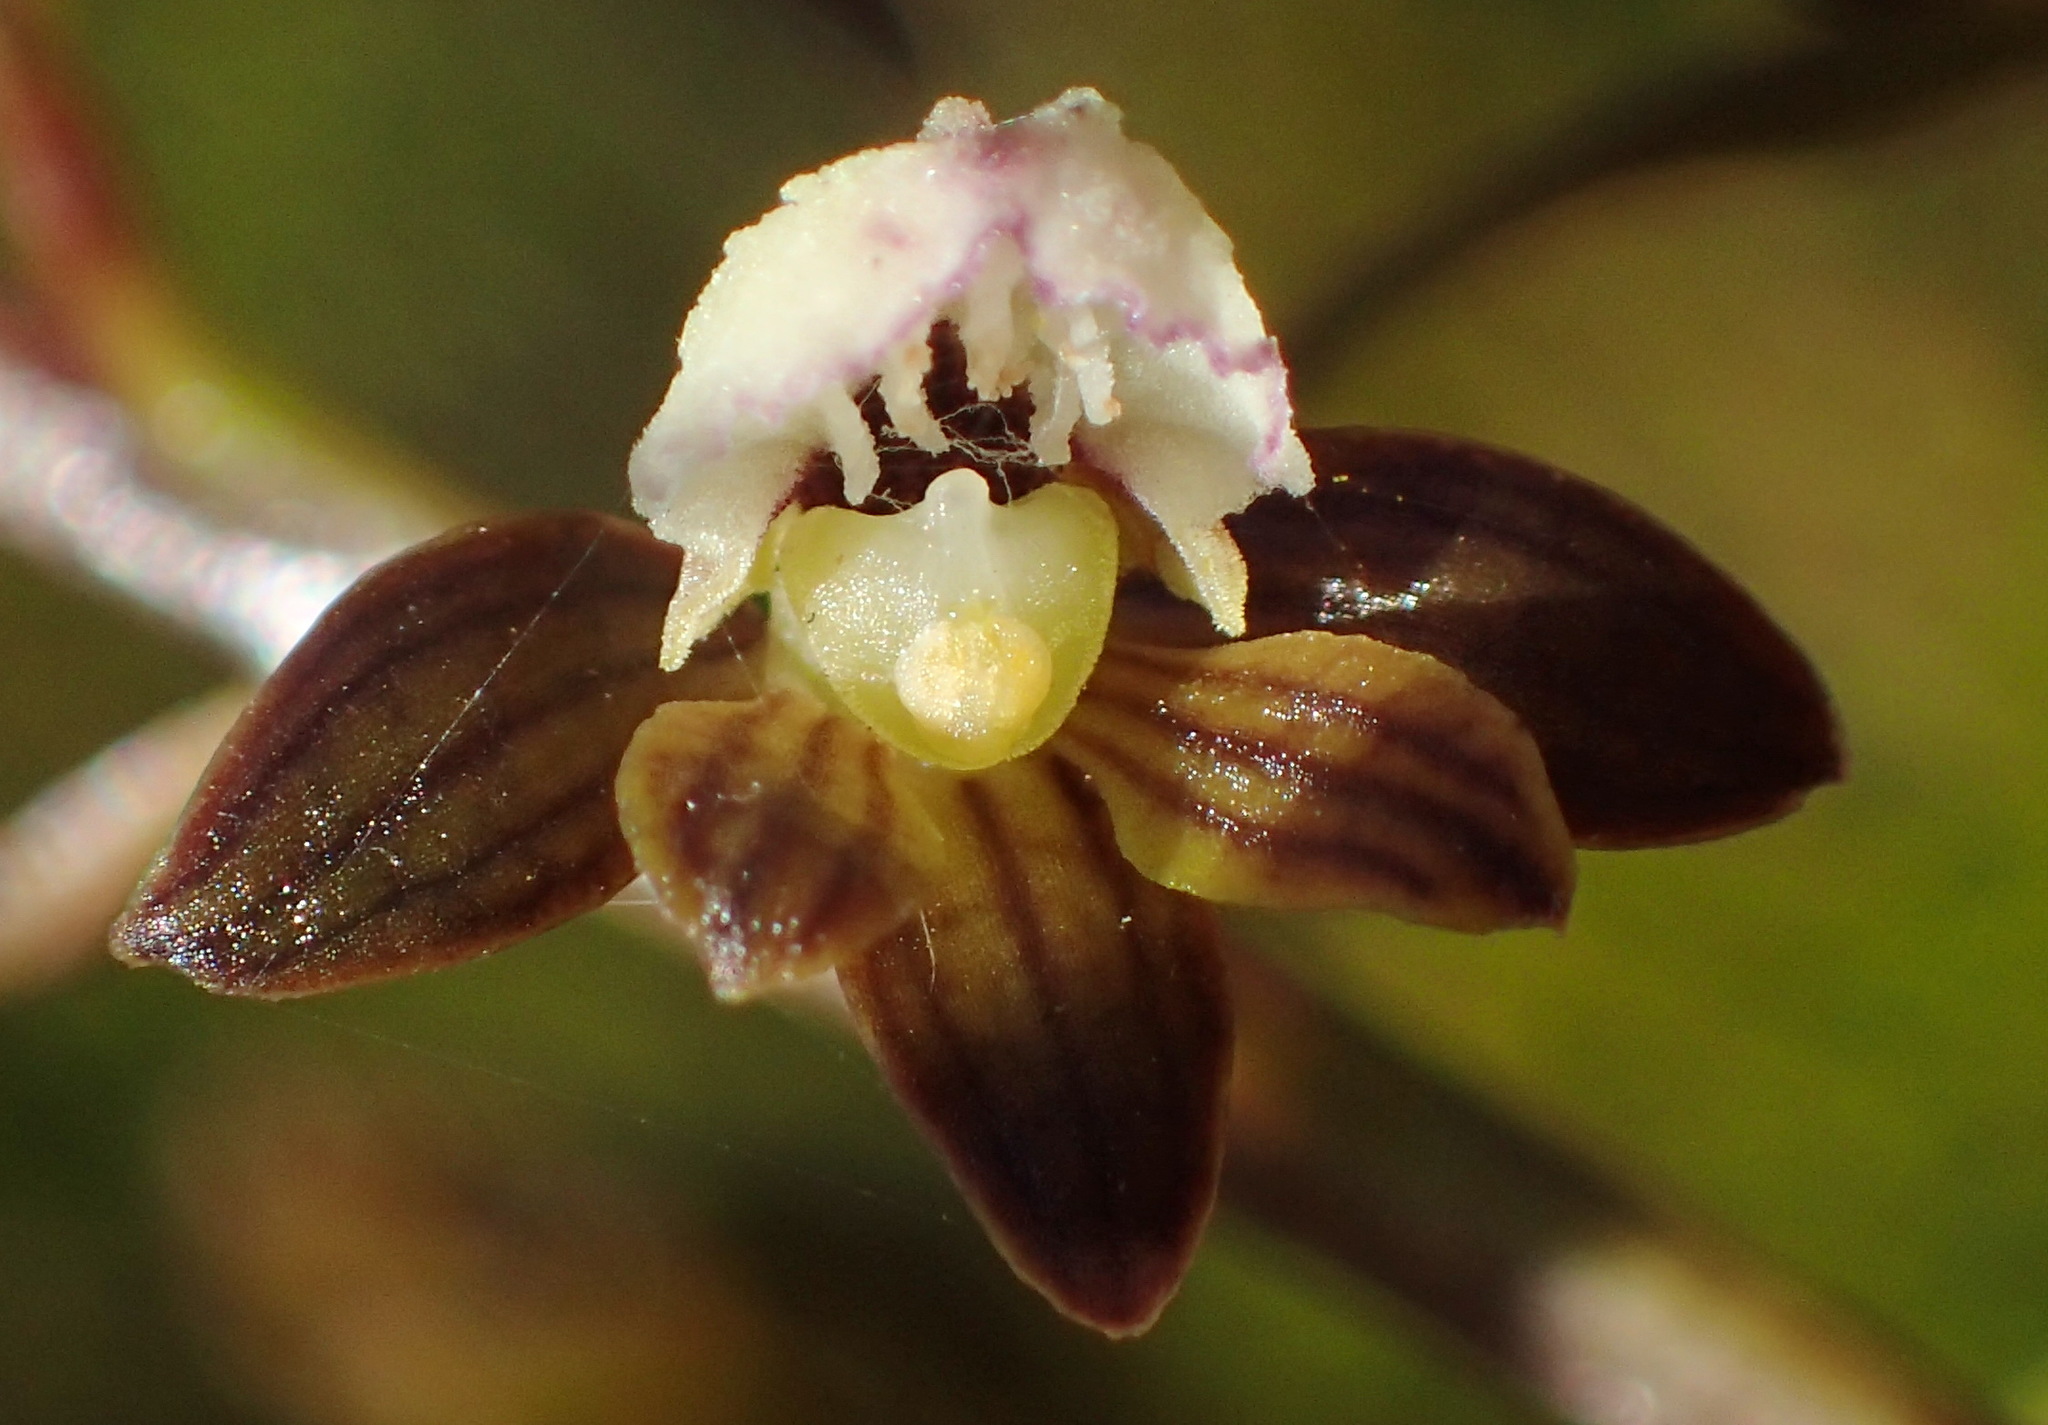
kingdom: Plantae
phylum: Tracheophyta
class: Liliopsida
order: Asparagales
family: Orchidaceae
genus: Eulophia
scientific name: Eulophia cochlearis
